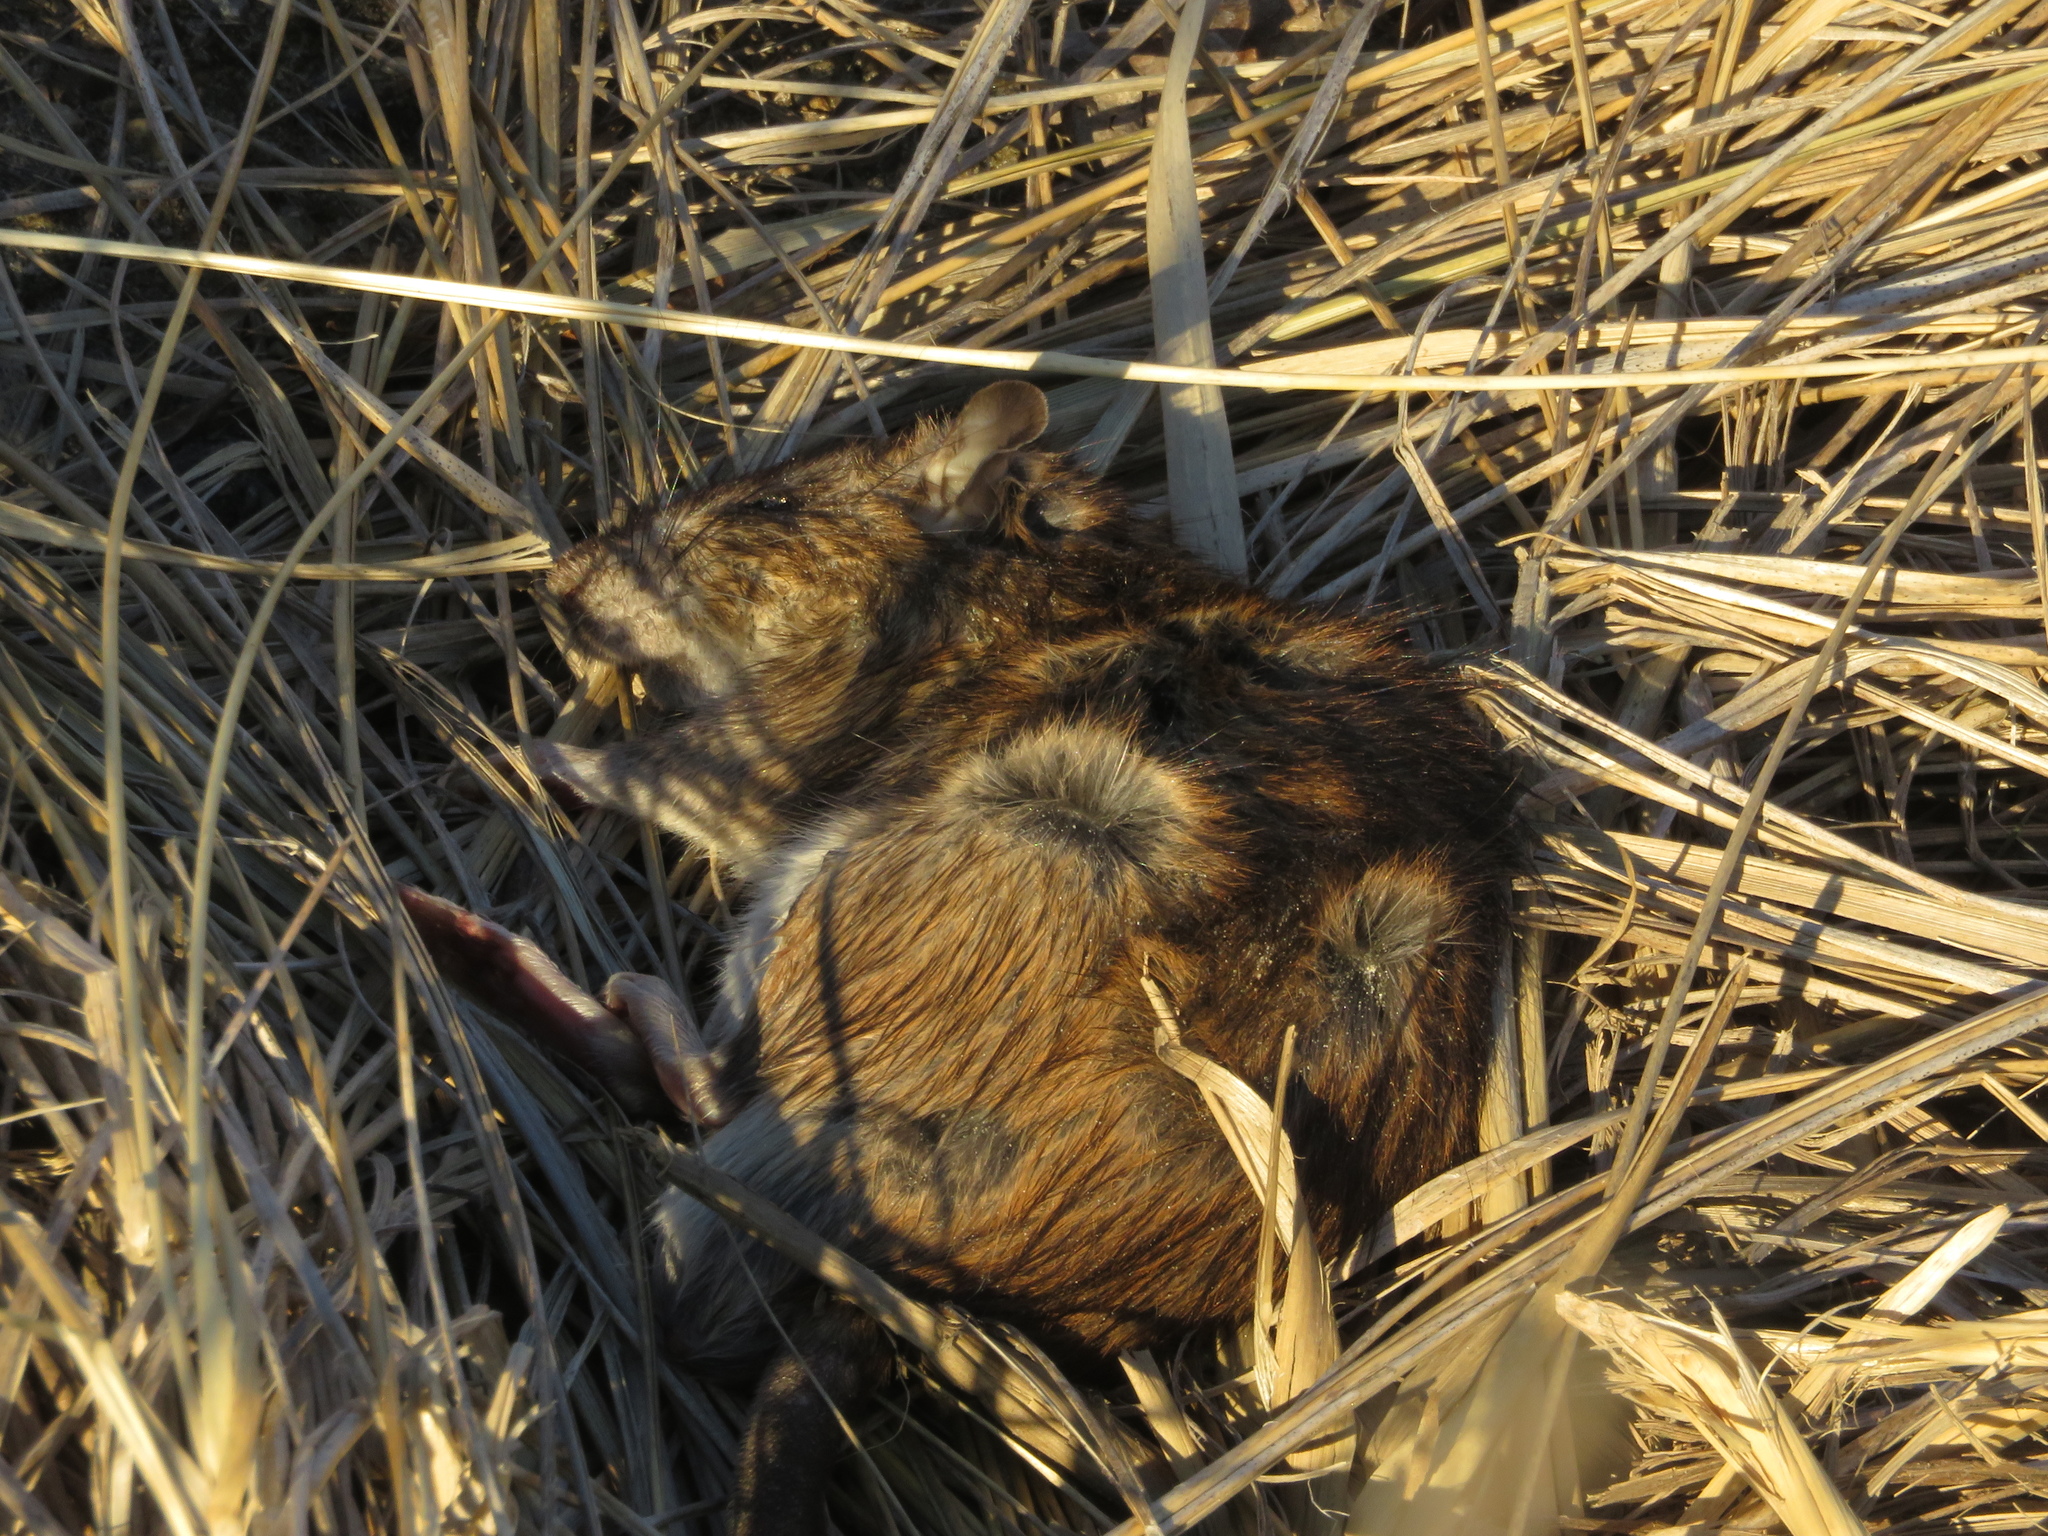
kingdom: Animalia
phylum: Chordata
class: Mammalia
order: Rodentia
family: Muridae
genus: Rattus
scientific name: Rattus norvegicus
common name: Brown rat
